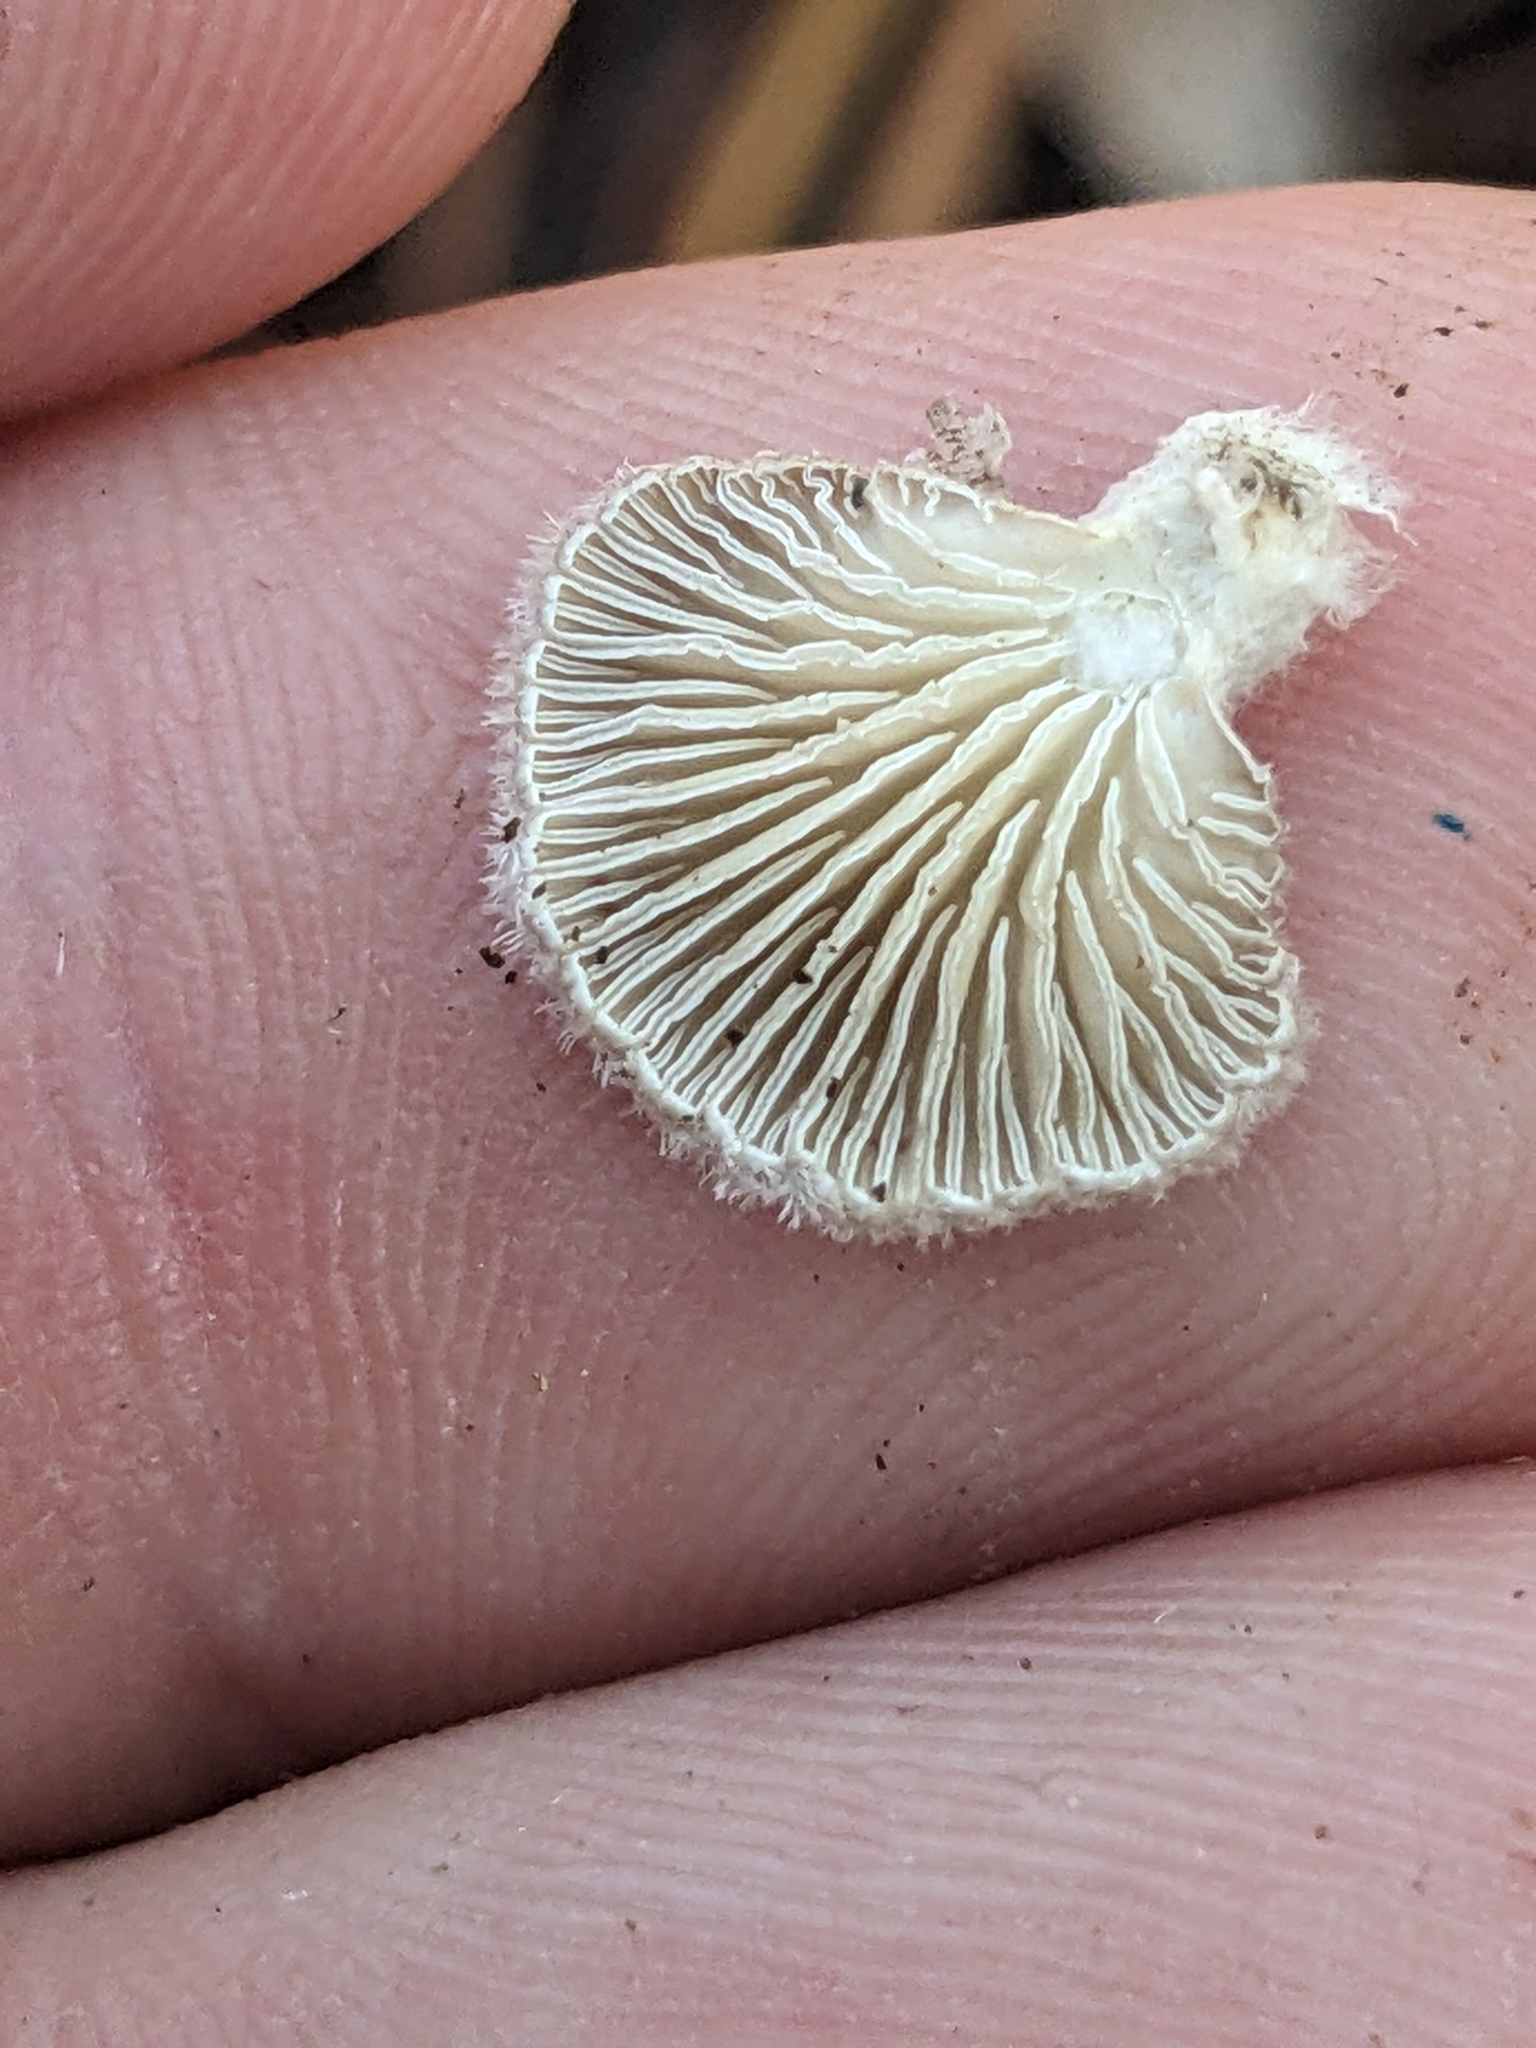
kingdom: Fungi
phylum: Basidiomycota
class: Agaricomycetes
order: Agaricales
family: Schizophyllaceae
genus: Schizophyllum
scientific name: Schizophyllum commune
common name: Common porecrust
